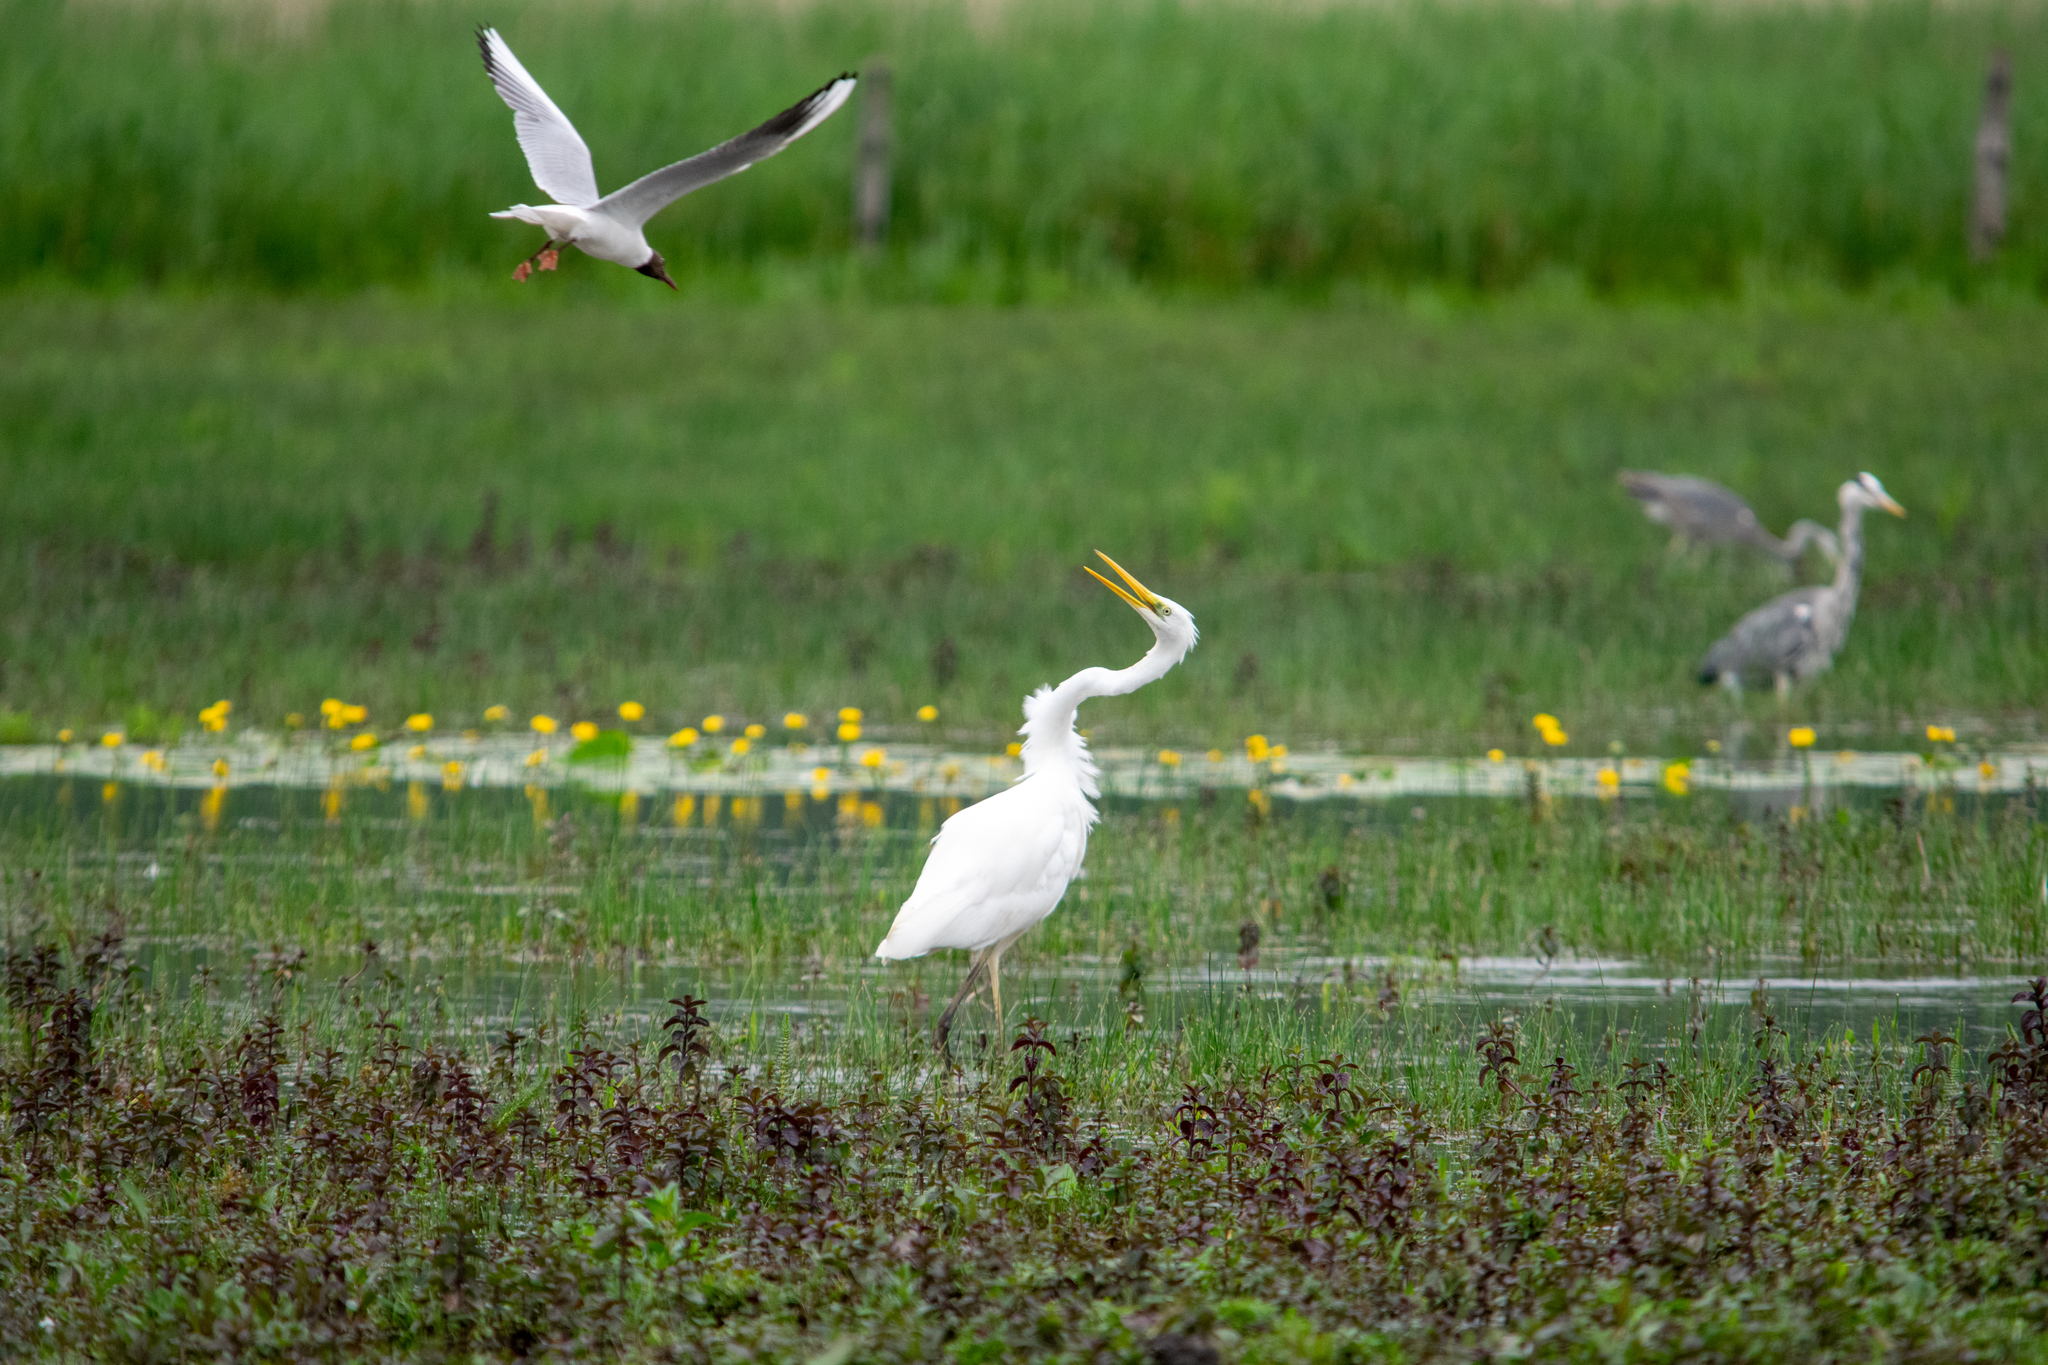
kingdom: Animalia
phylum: Chordata
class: Aves
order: Pelecaniformes
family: Ardeidae
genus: Ardea
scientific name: Ardea alba
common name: Great egret
